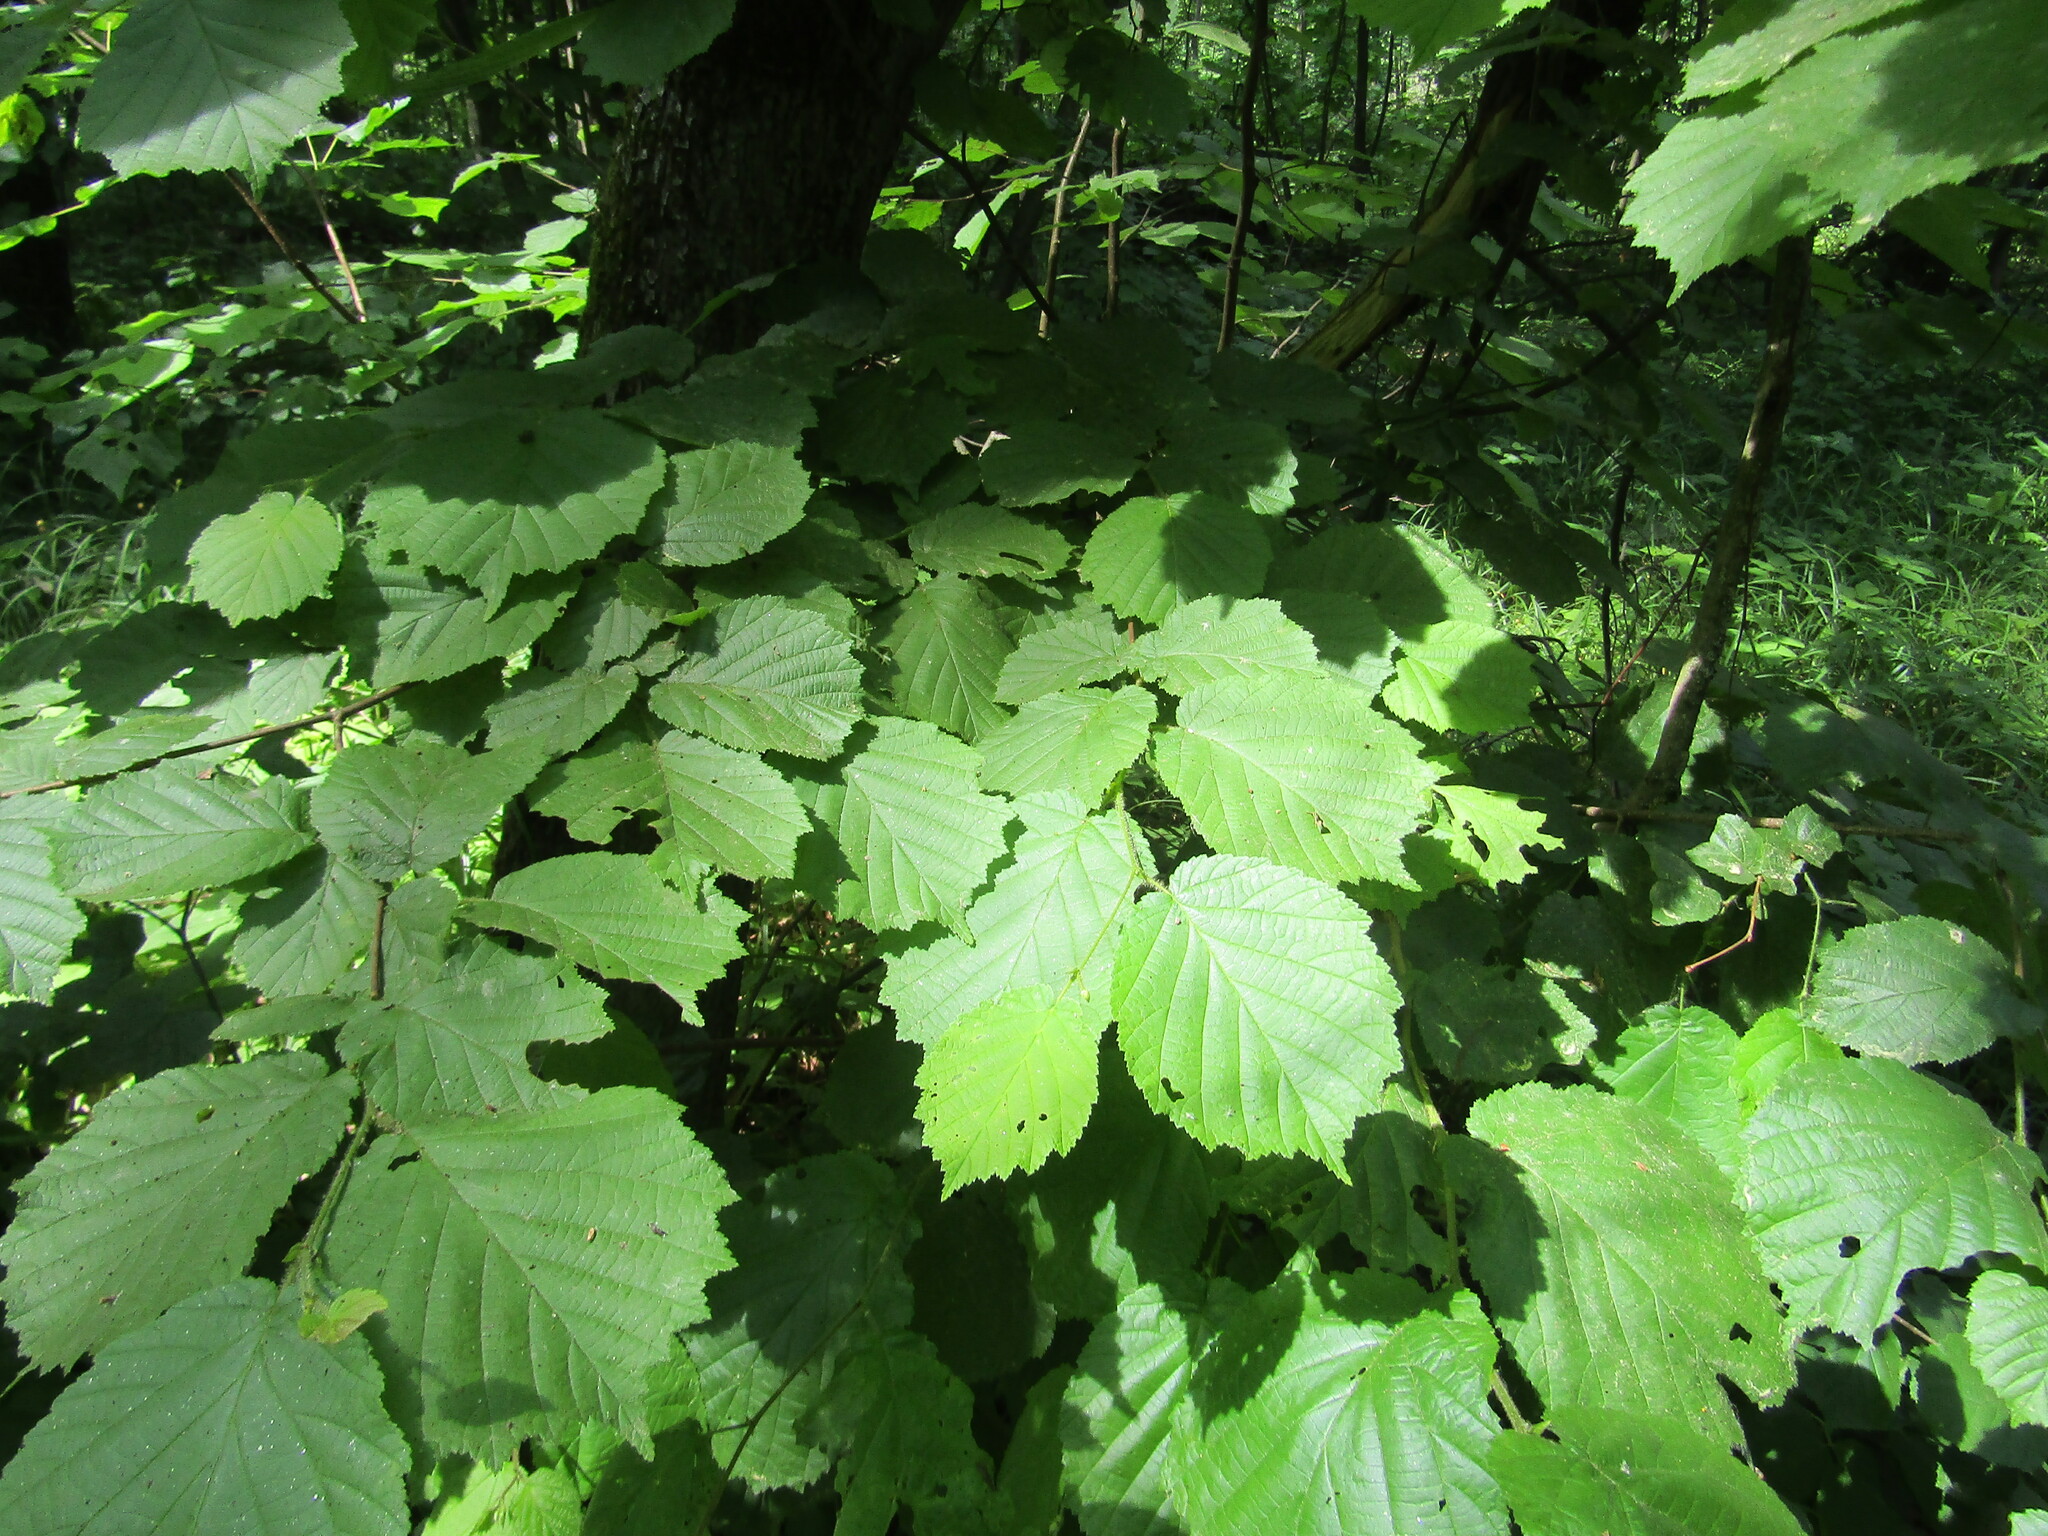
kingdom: Plantae
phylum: Tracheophyta
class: Magnoliopsida
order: Fagales
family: Betulaceae
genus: Corylus
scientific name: Corylus avellana
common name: European hazel
